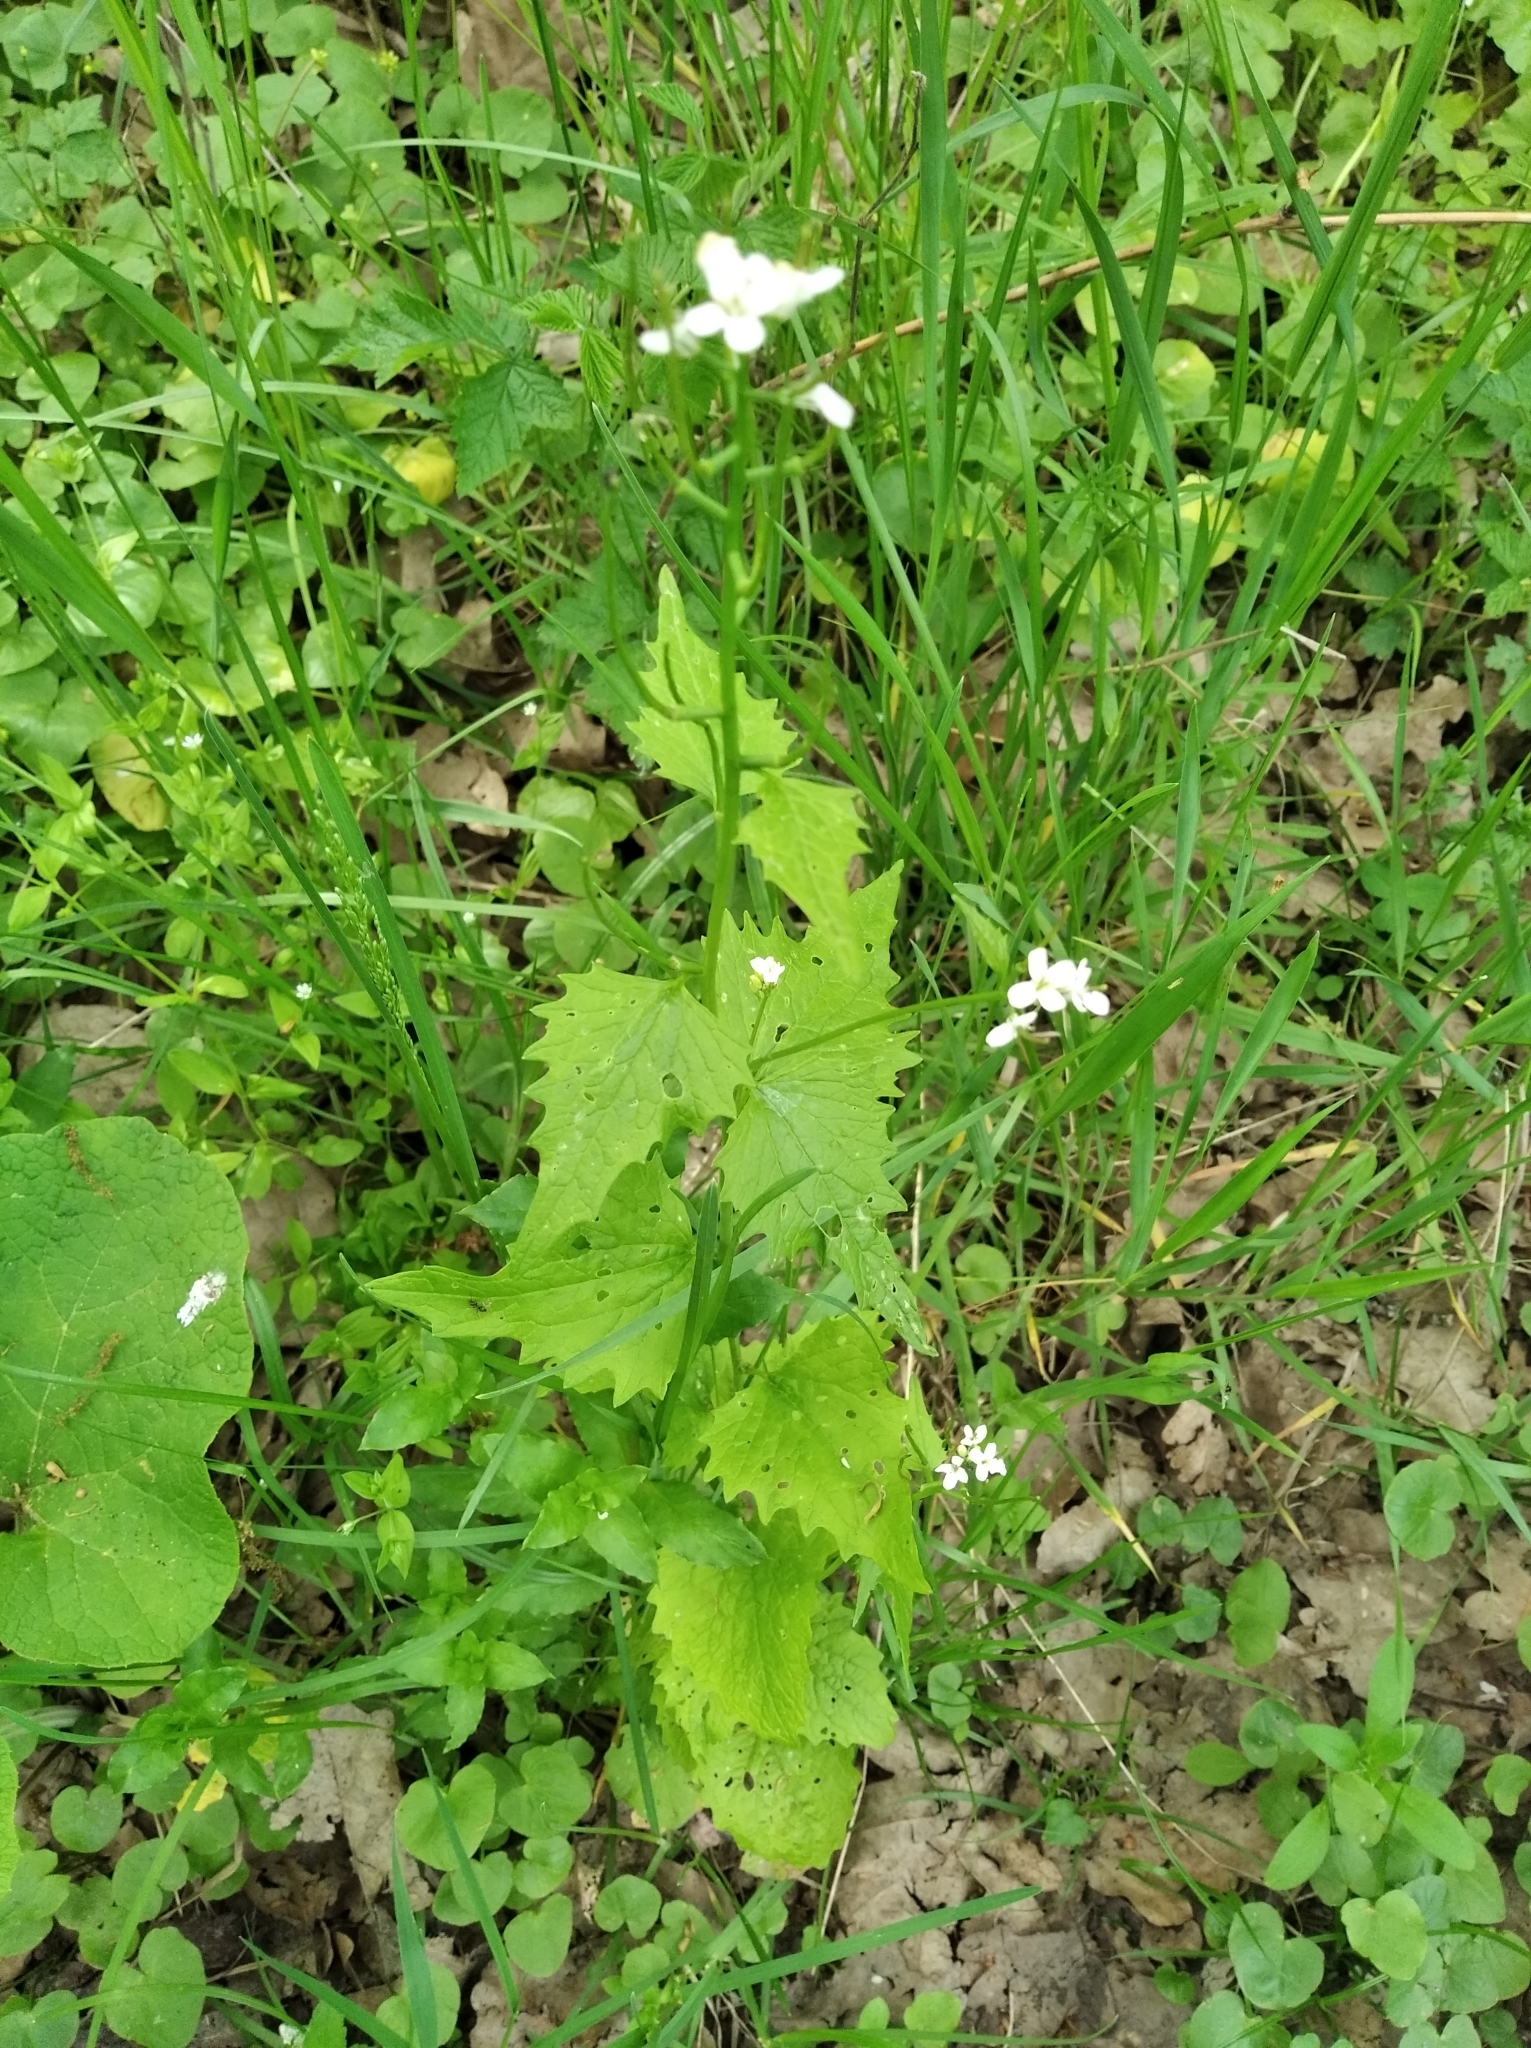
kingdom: Plantae
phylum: Tracheophyta
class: Magnoliopsida
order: Brassicales
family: Brassicaceae
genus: Alliaria
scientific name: Alliaria petiolata
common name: Garlic mustard
